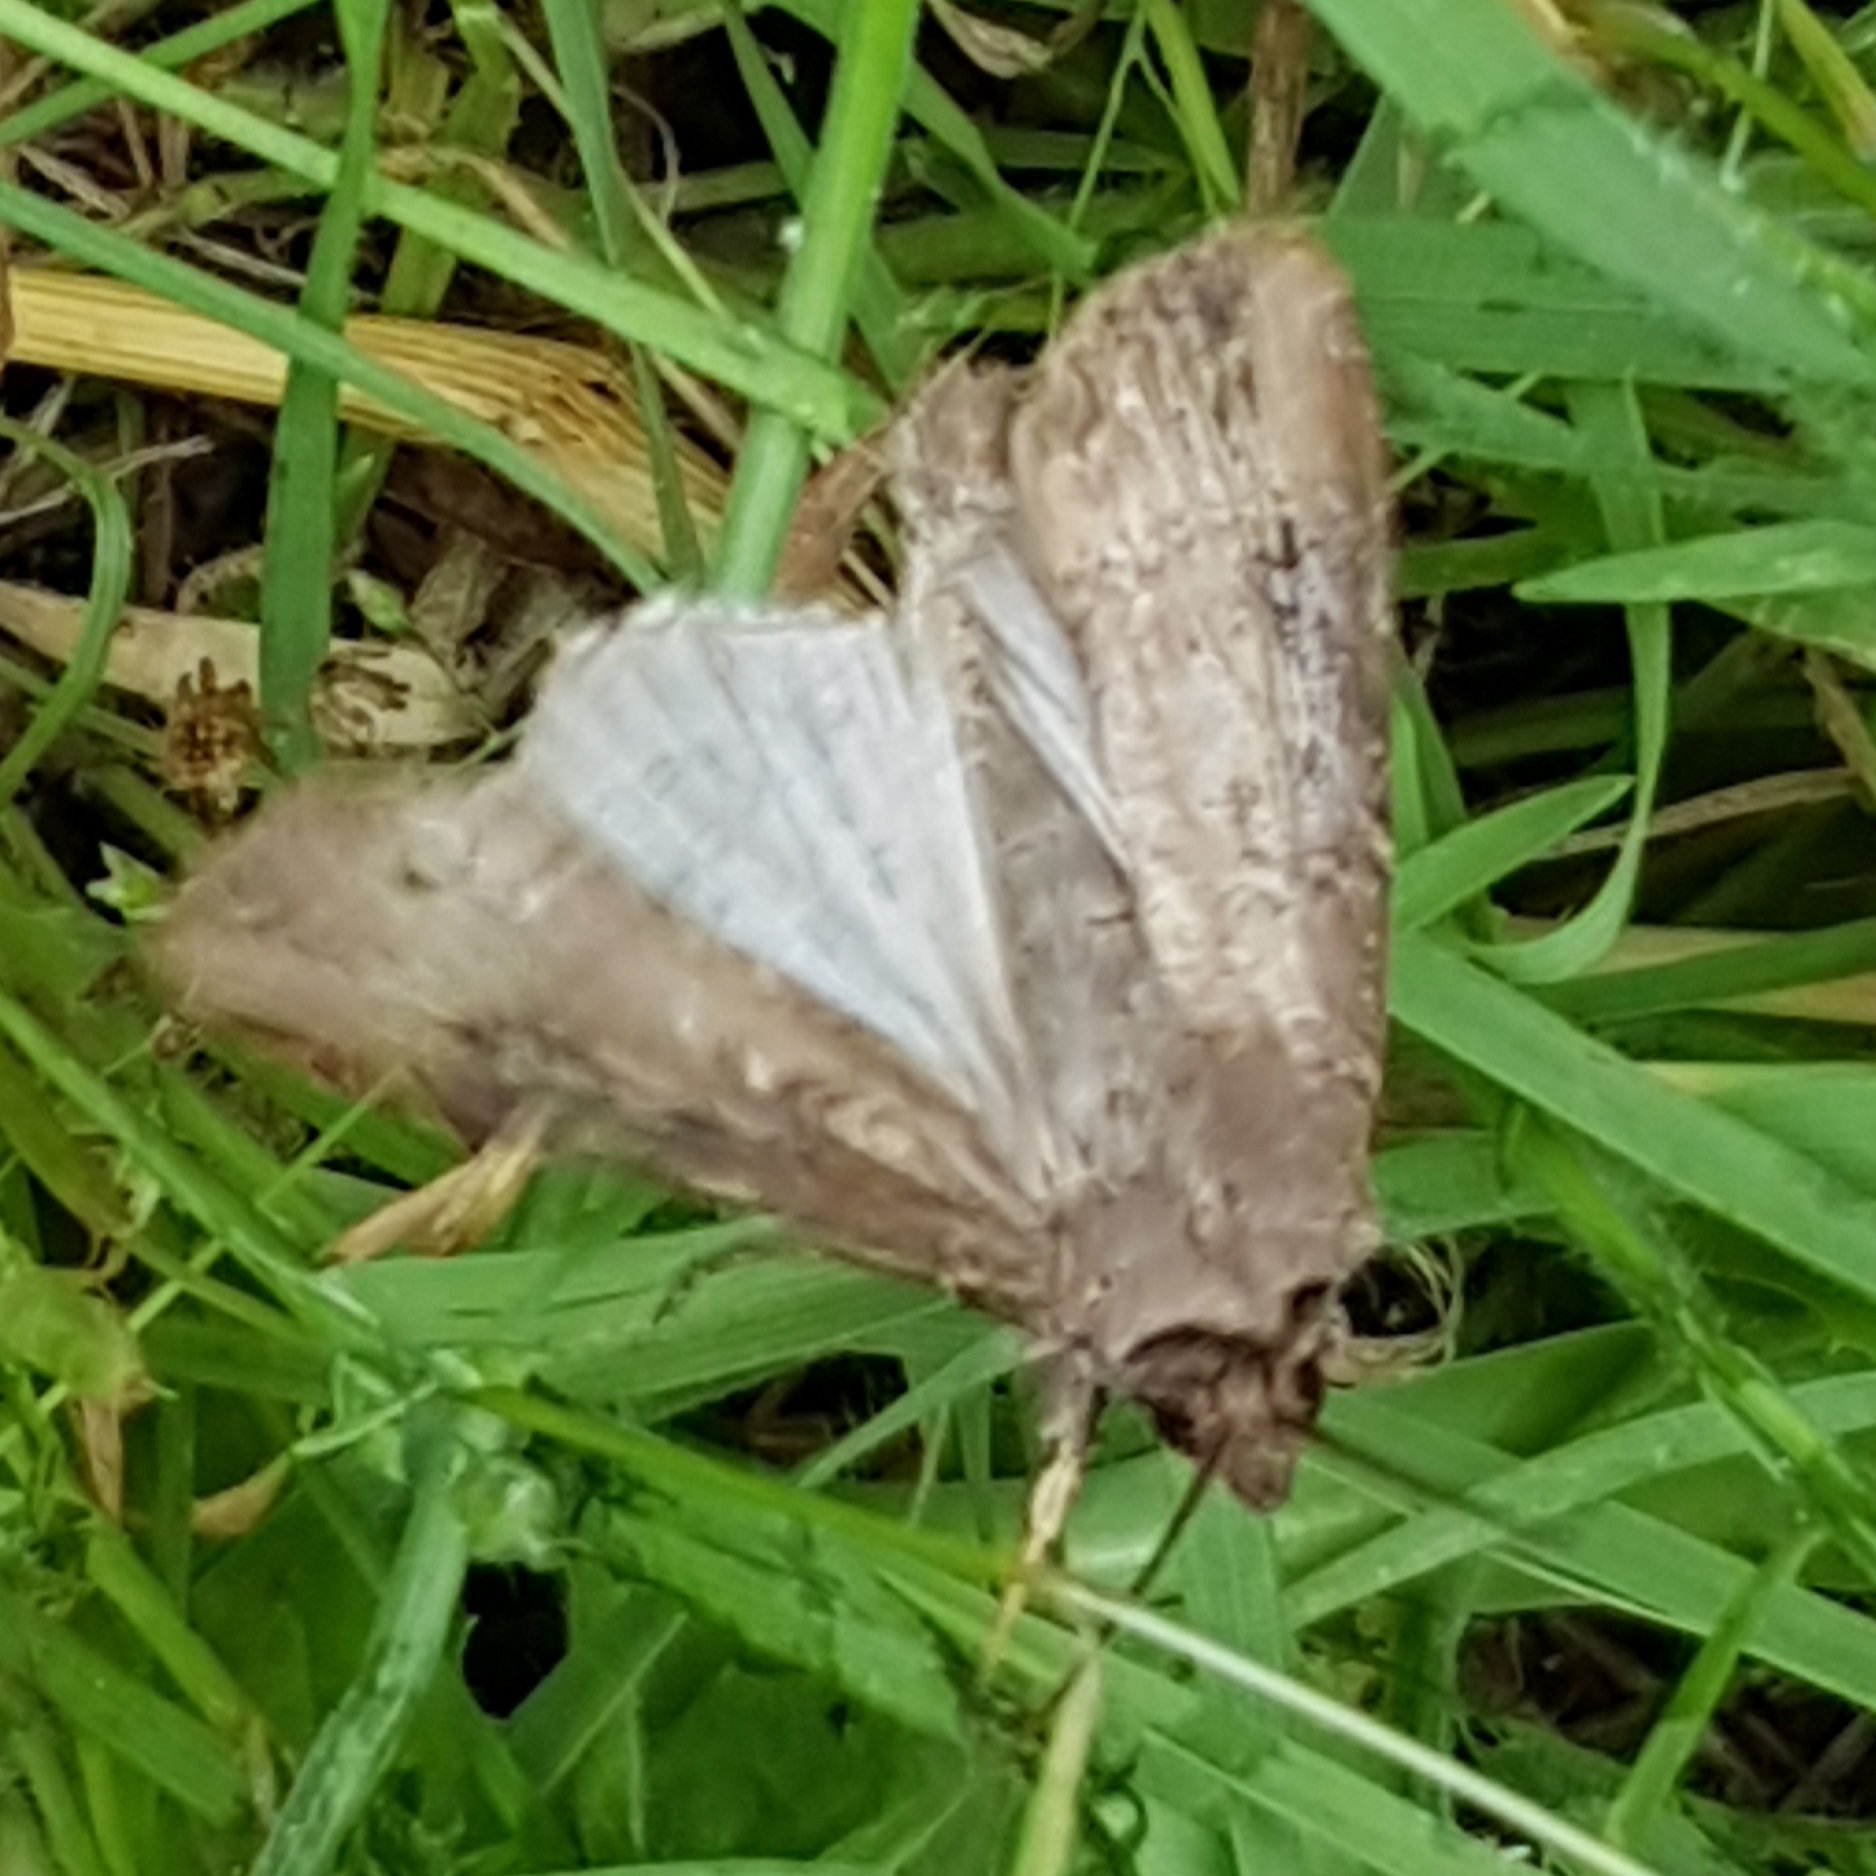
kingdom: Animalia
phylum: Arthropoda
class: Insecta
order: Lepidoptera
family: Noctuidae
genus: Agrotis
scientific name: Agrotis ipsilon
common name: Dark sword-grass
